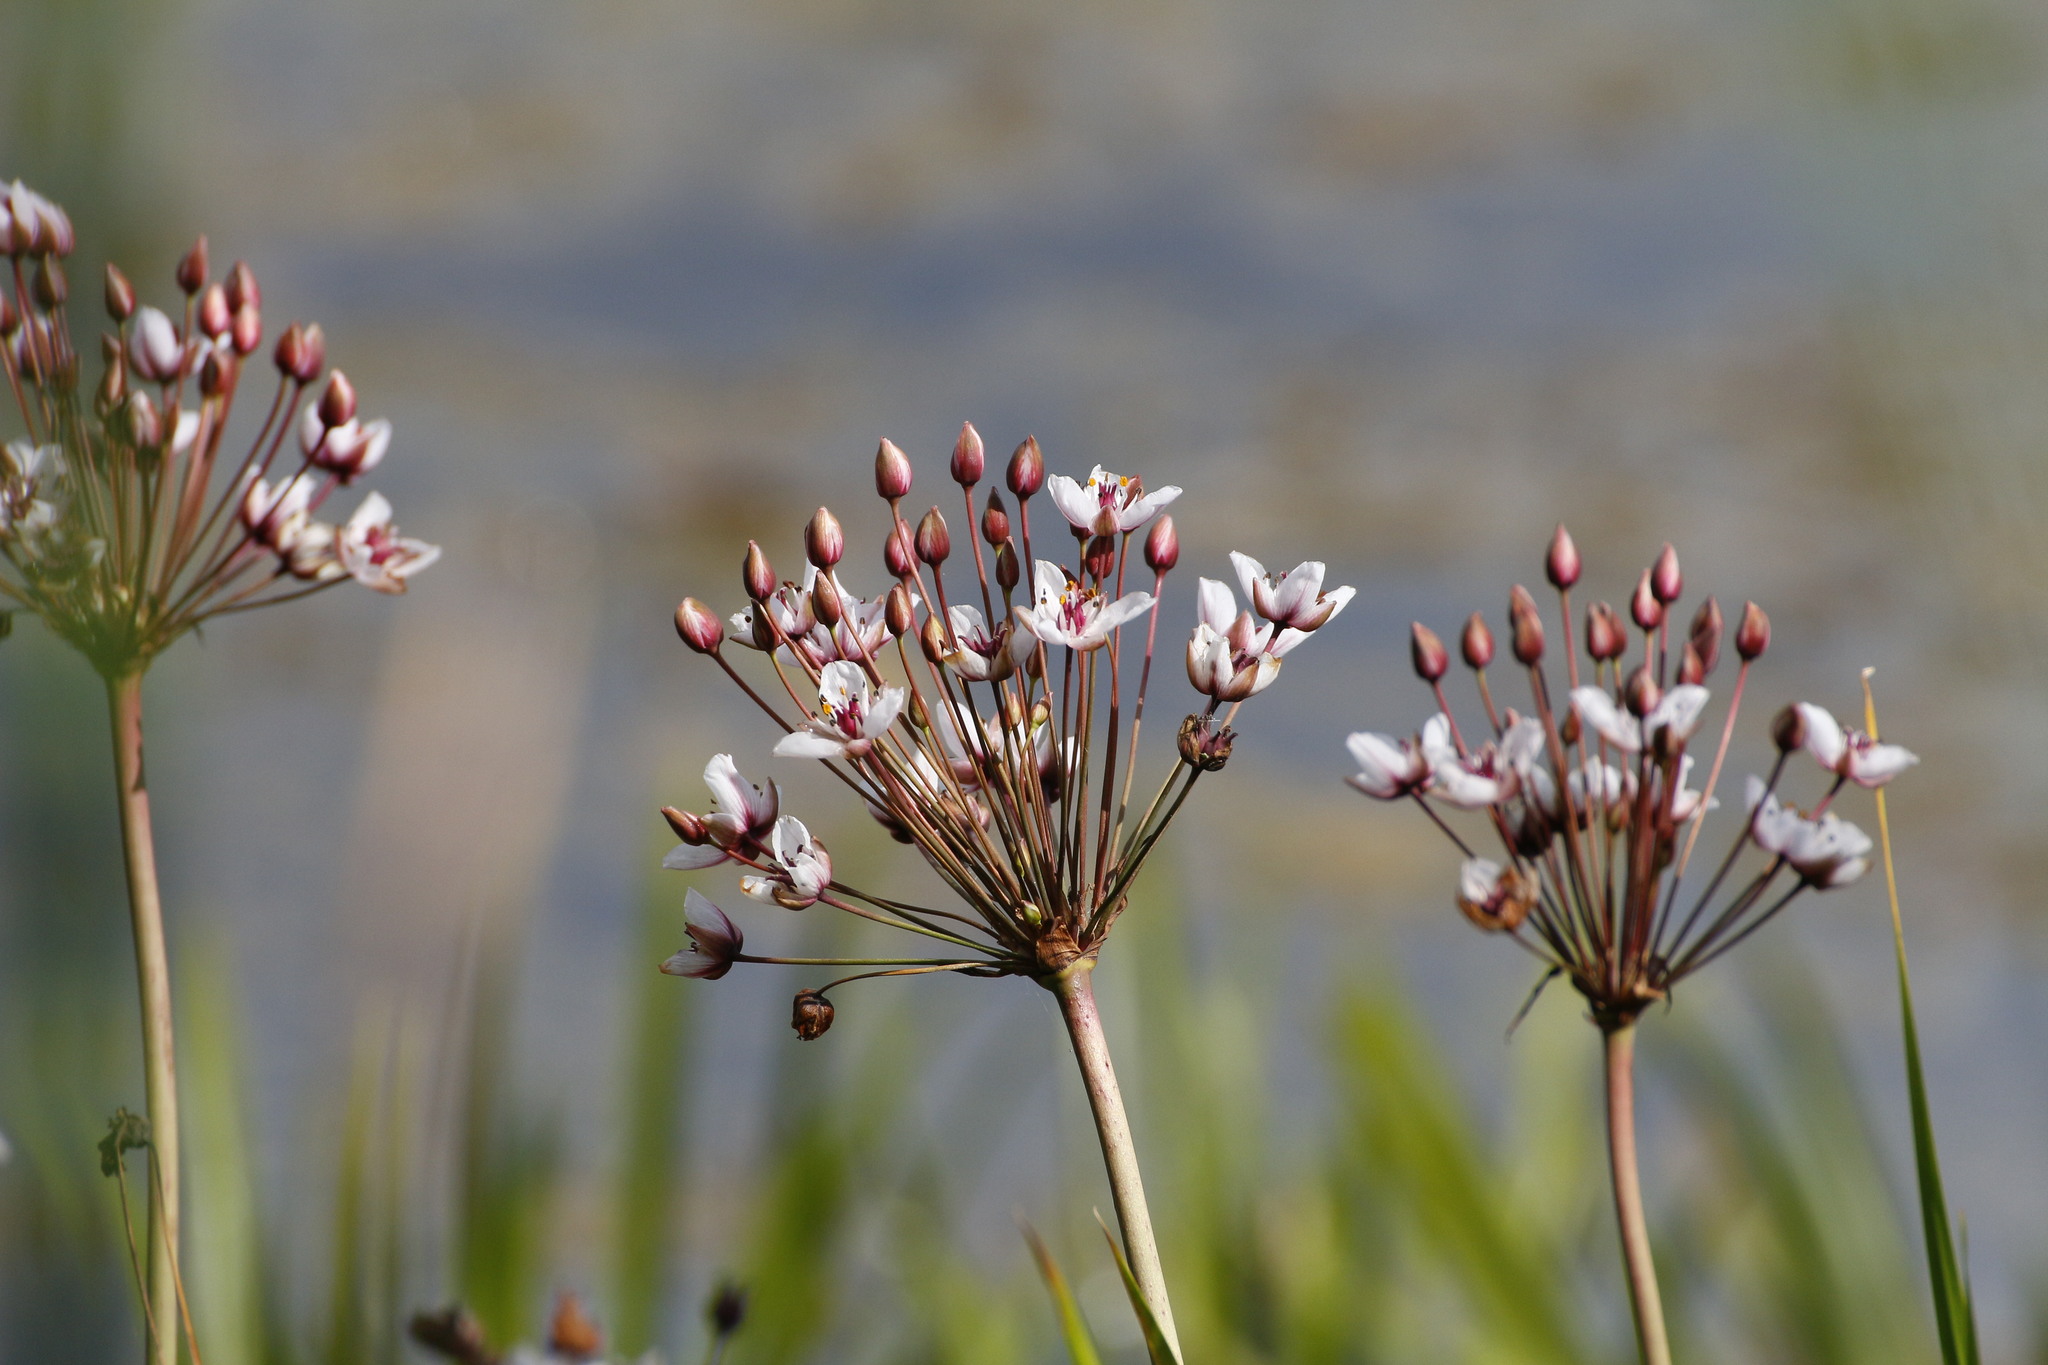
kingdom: Plantae
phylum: Tracheophyta
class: Liliopsida
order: Alismatales
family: Butomaceae
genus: Butomus
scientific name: Butomus umbellatus
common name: Flowering-rush
